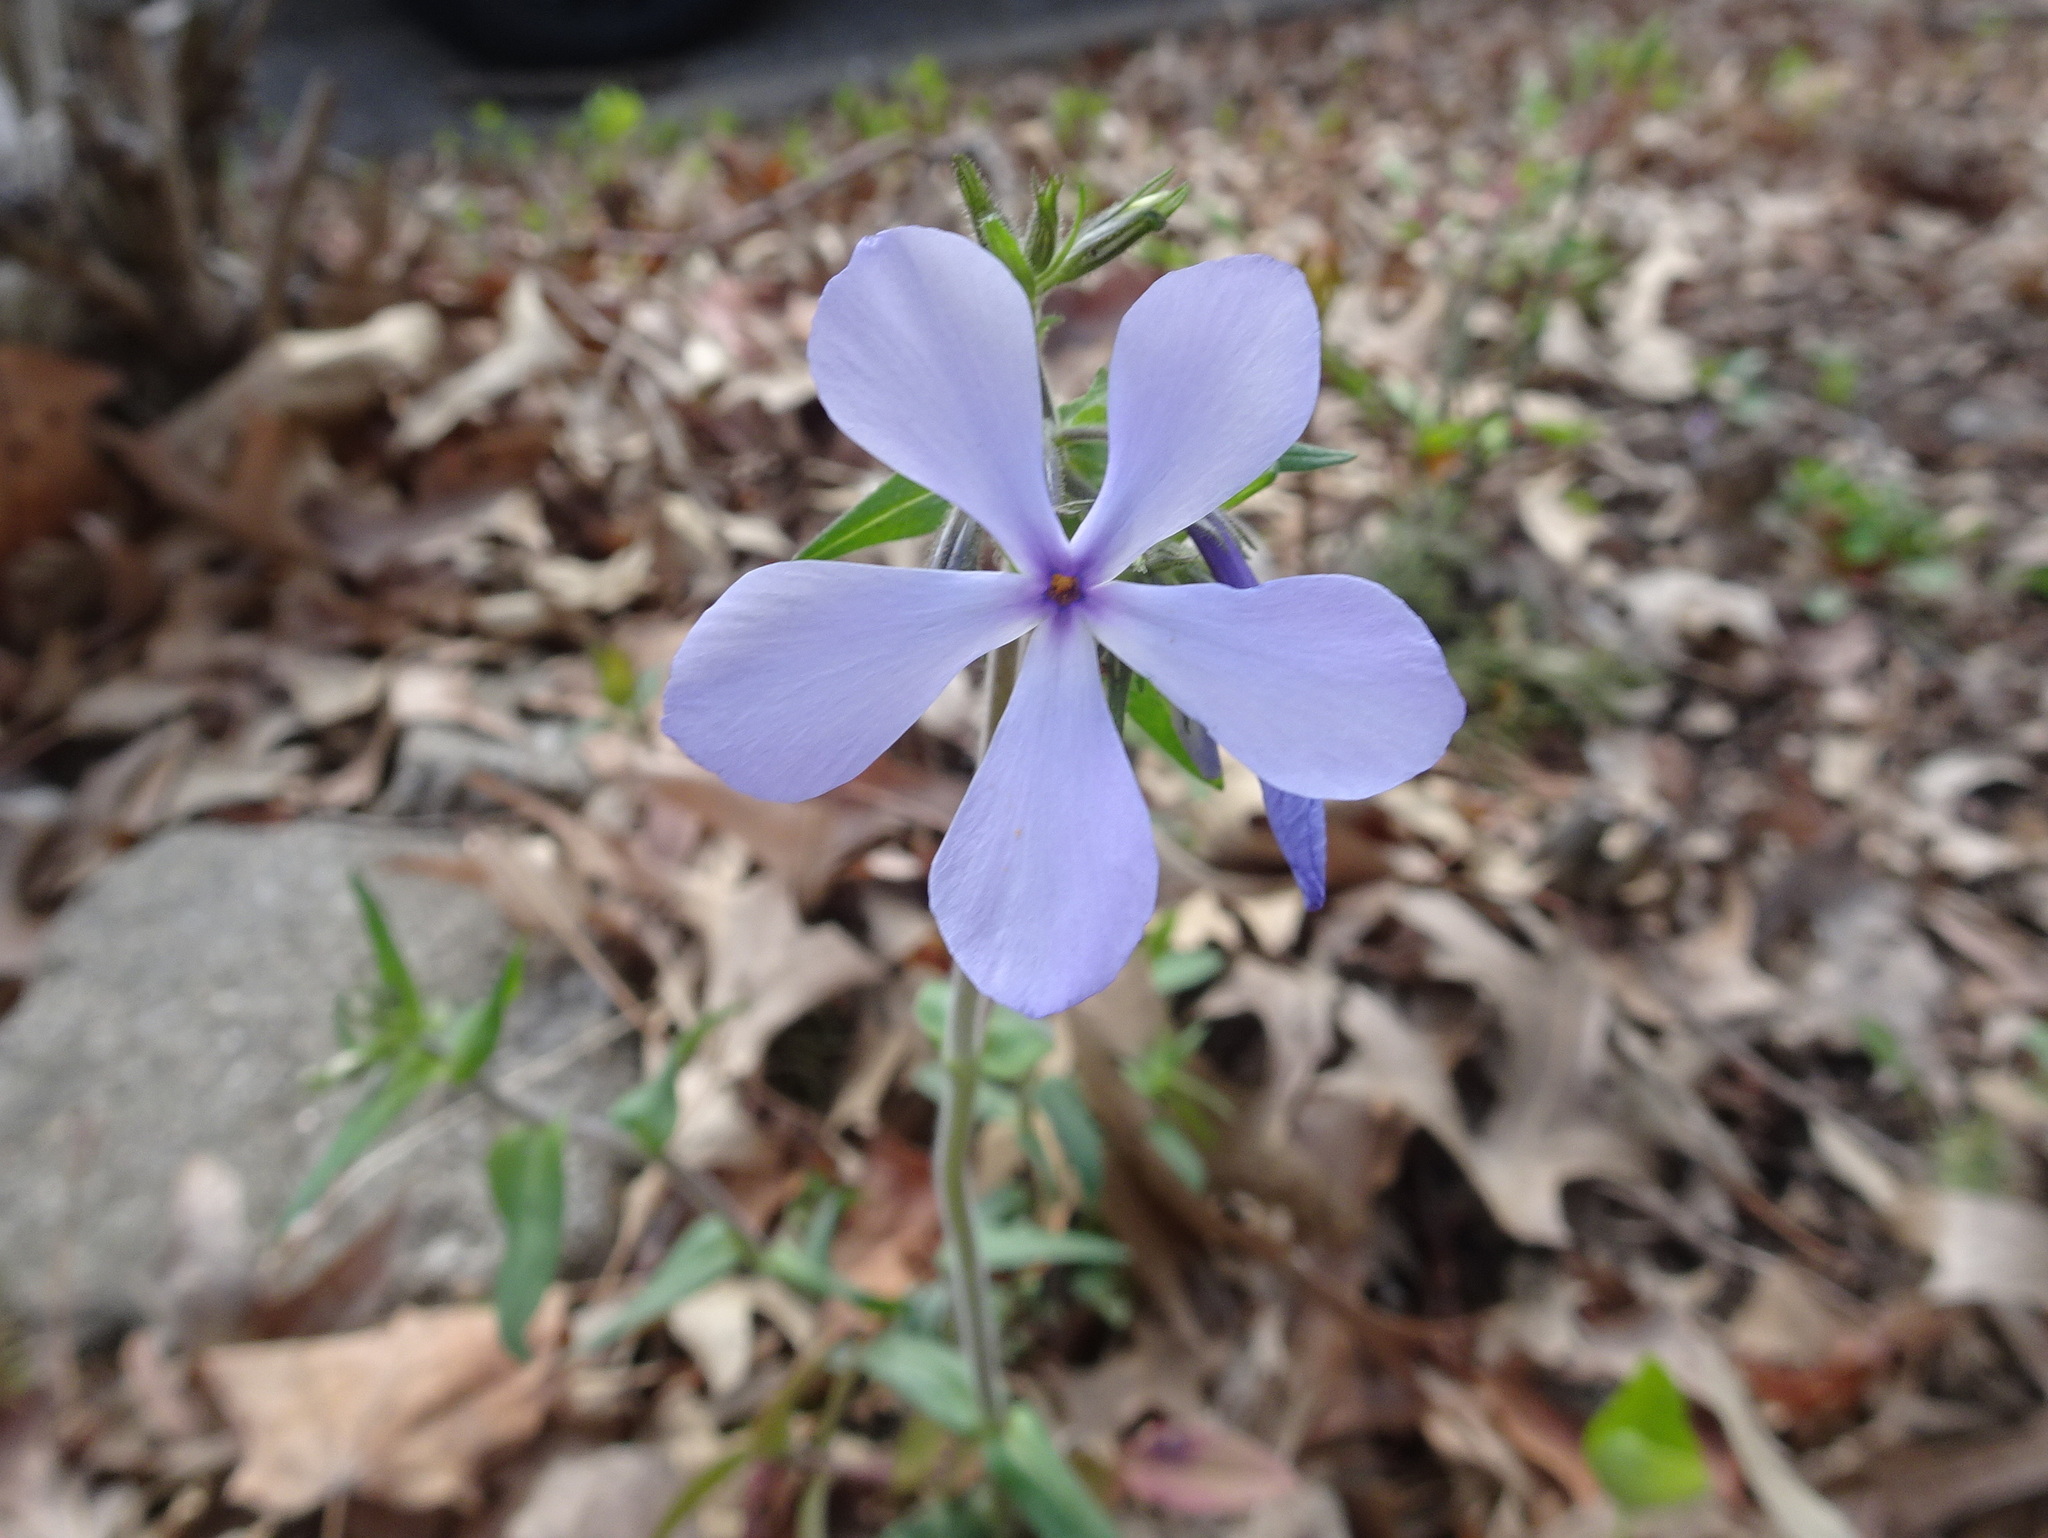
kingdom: Plantae
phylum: Tracheophyta
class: Magnoliopsida
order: Ericales
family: Polemoniaceae
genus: Phlox
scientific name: Phlox divaricata
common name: Blue phlox
